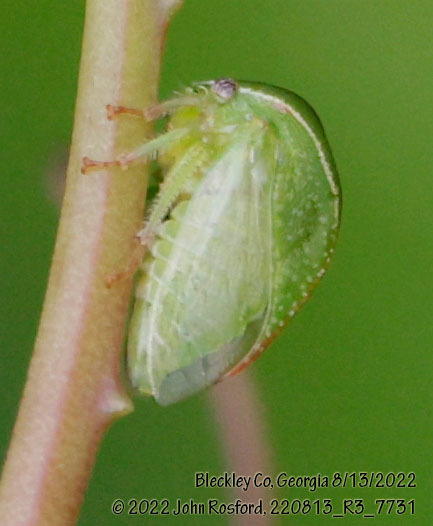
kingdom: Animalia
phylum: Arthropoda
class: Insecta
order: Hemiptera
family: Membracidae
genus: Spissistilus
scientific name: Spissistilus festina
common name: Membracid bug
